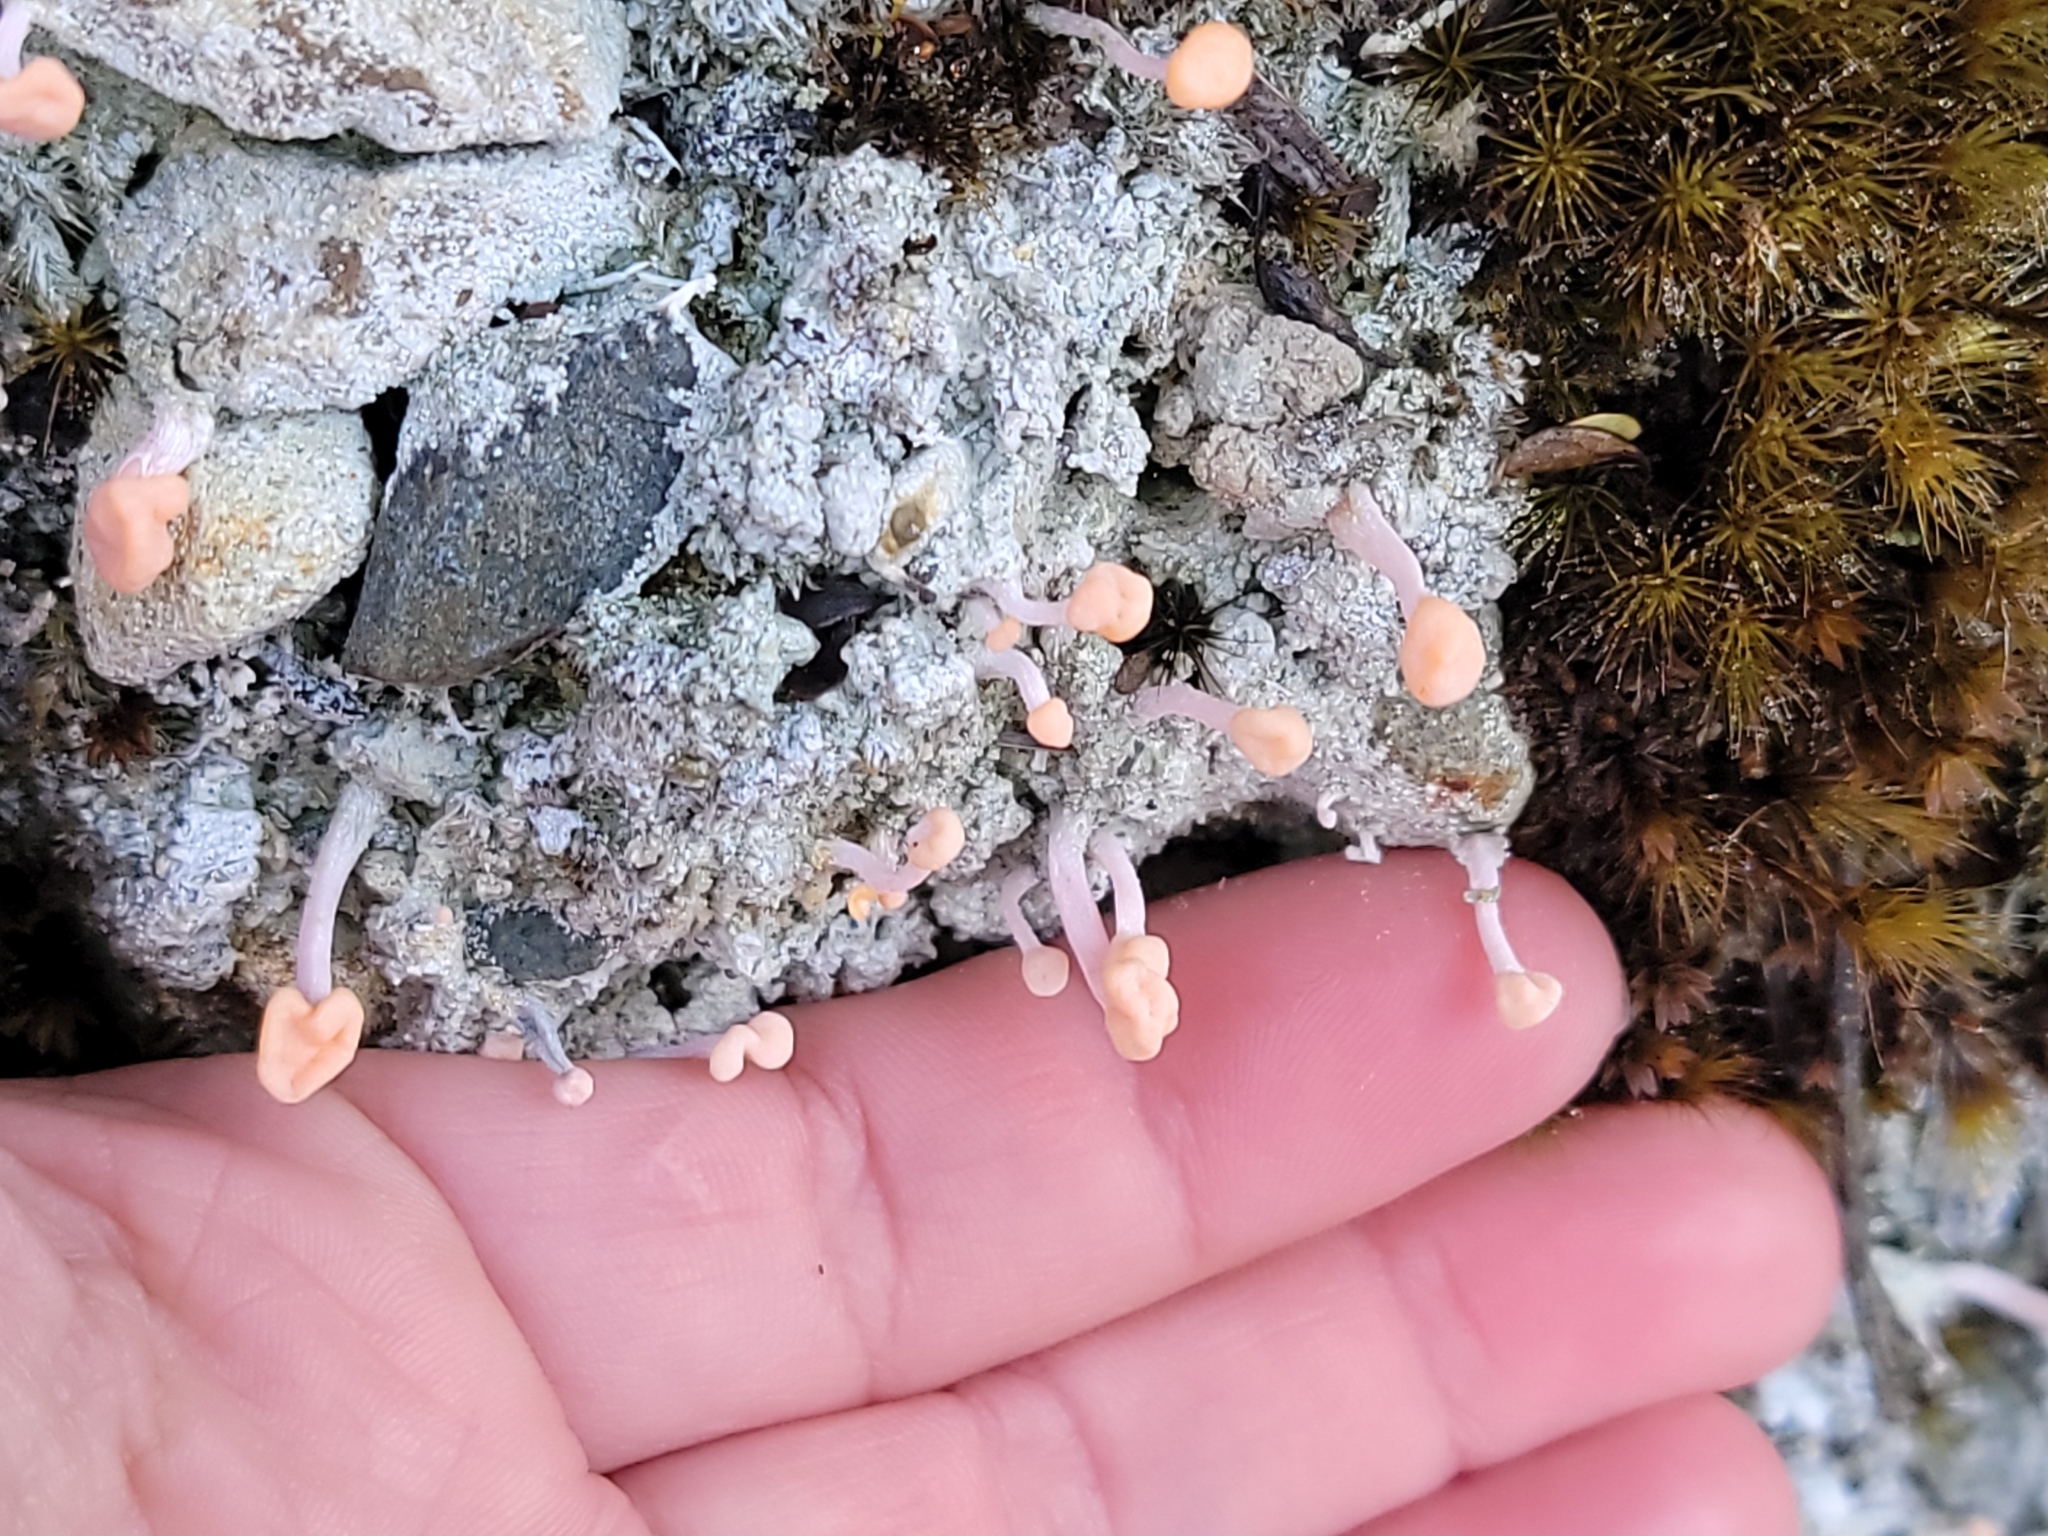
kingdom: Fungi
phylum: Ascomycota
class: Lecanoromycetes
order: Pertusariales
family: Icmadophilaceae
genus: Dibaeis
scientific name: Dibaeis arcuata
